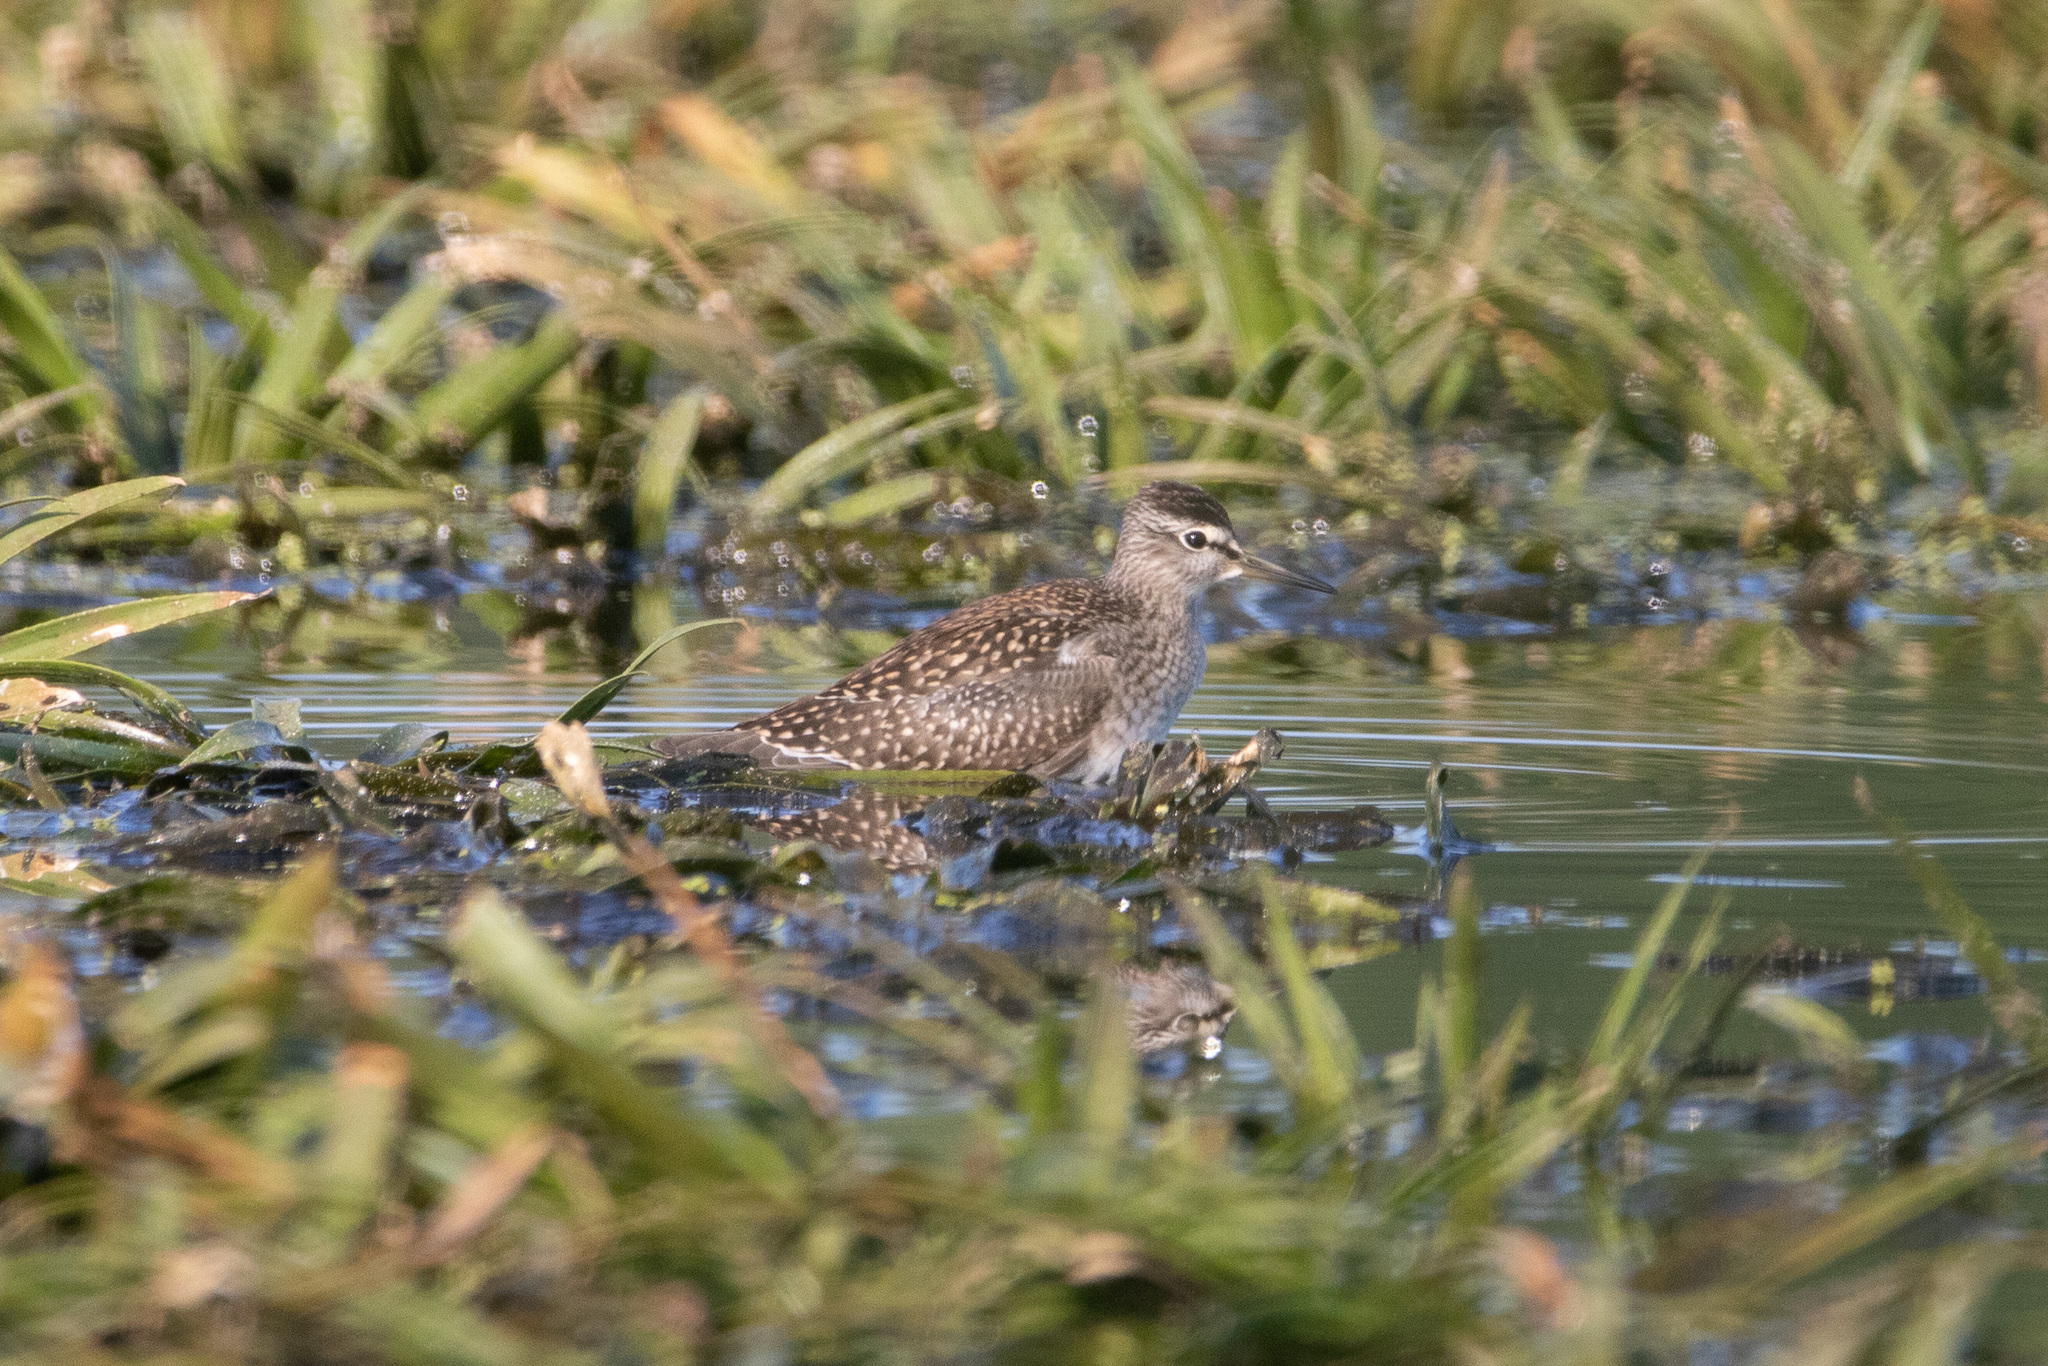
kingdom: Animalia
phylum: Chordata
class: Aves
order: Charadriiformes
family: Scolopacidae
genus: Tringa
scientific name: Tringa glareola
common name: Wood sandpiper
